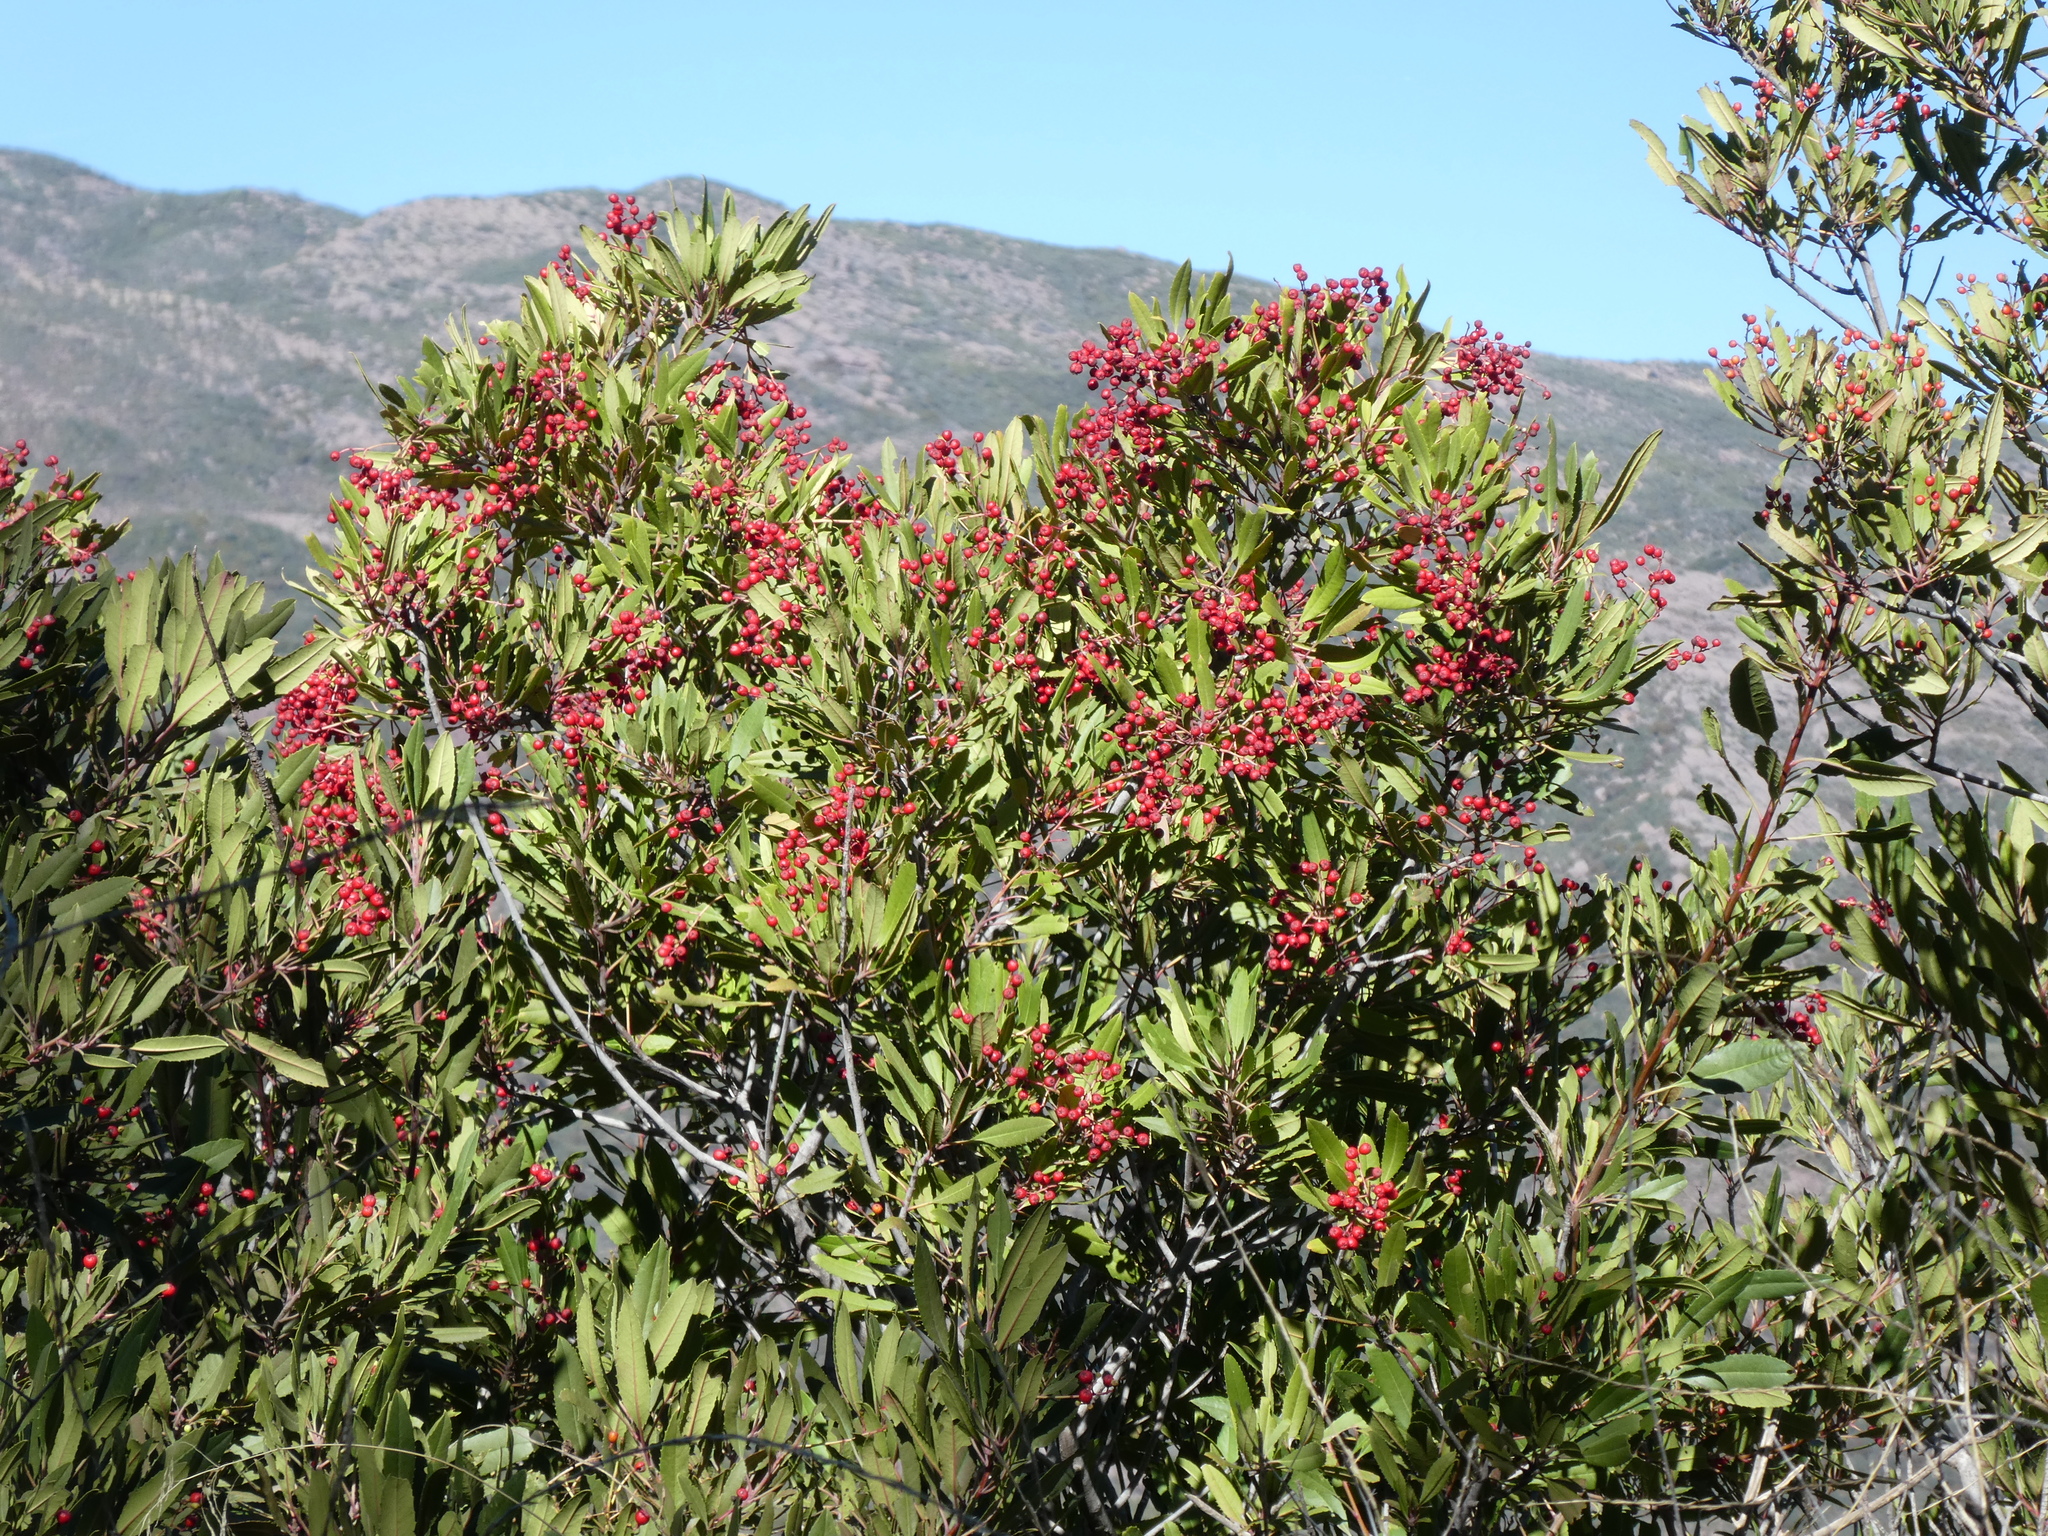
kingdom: Plantae
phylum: Tracheophyta
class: Magnoliopsida
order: Rosales
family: Rosaceae
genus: Heteromeles
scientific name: Heteromeles arbutifolia
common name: California-holly
